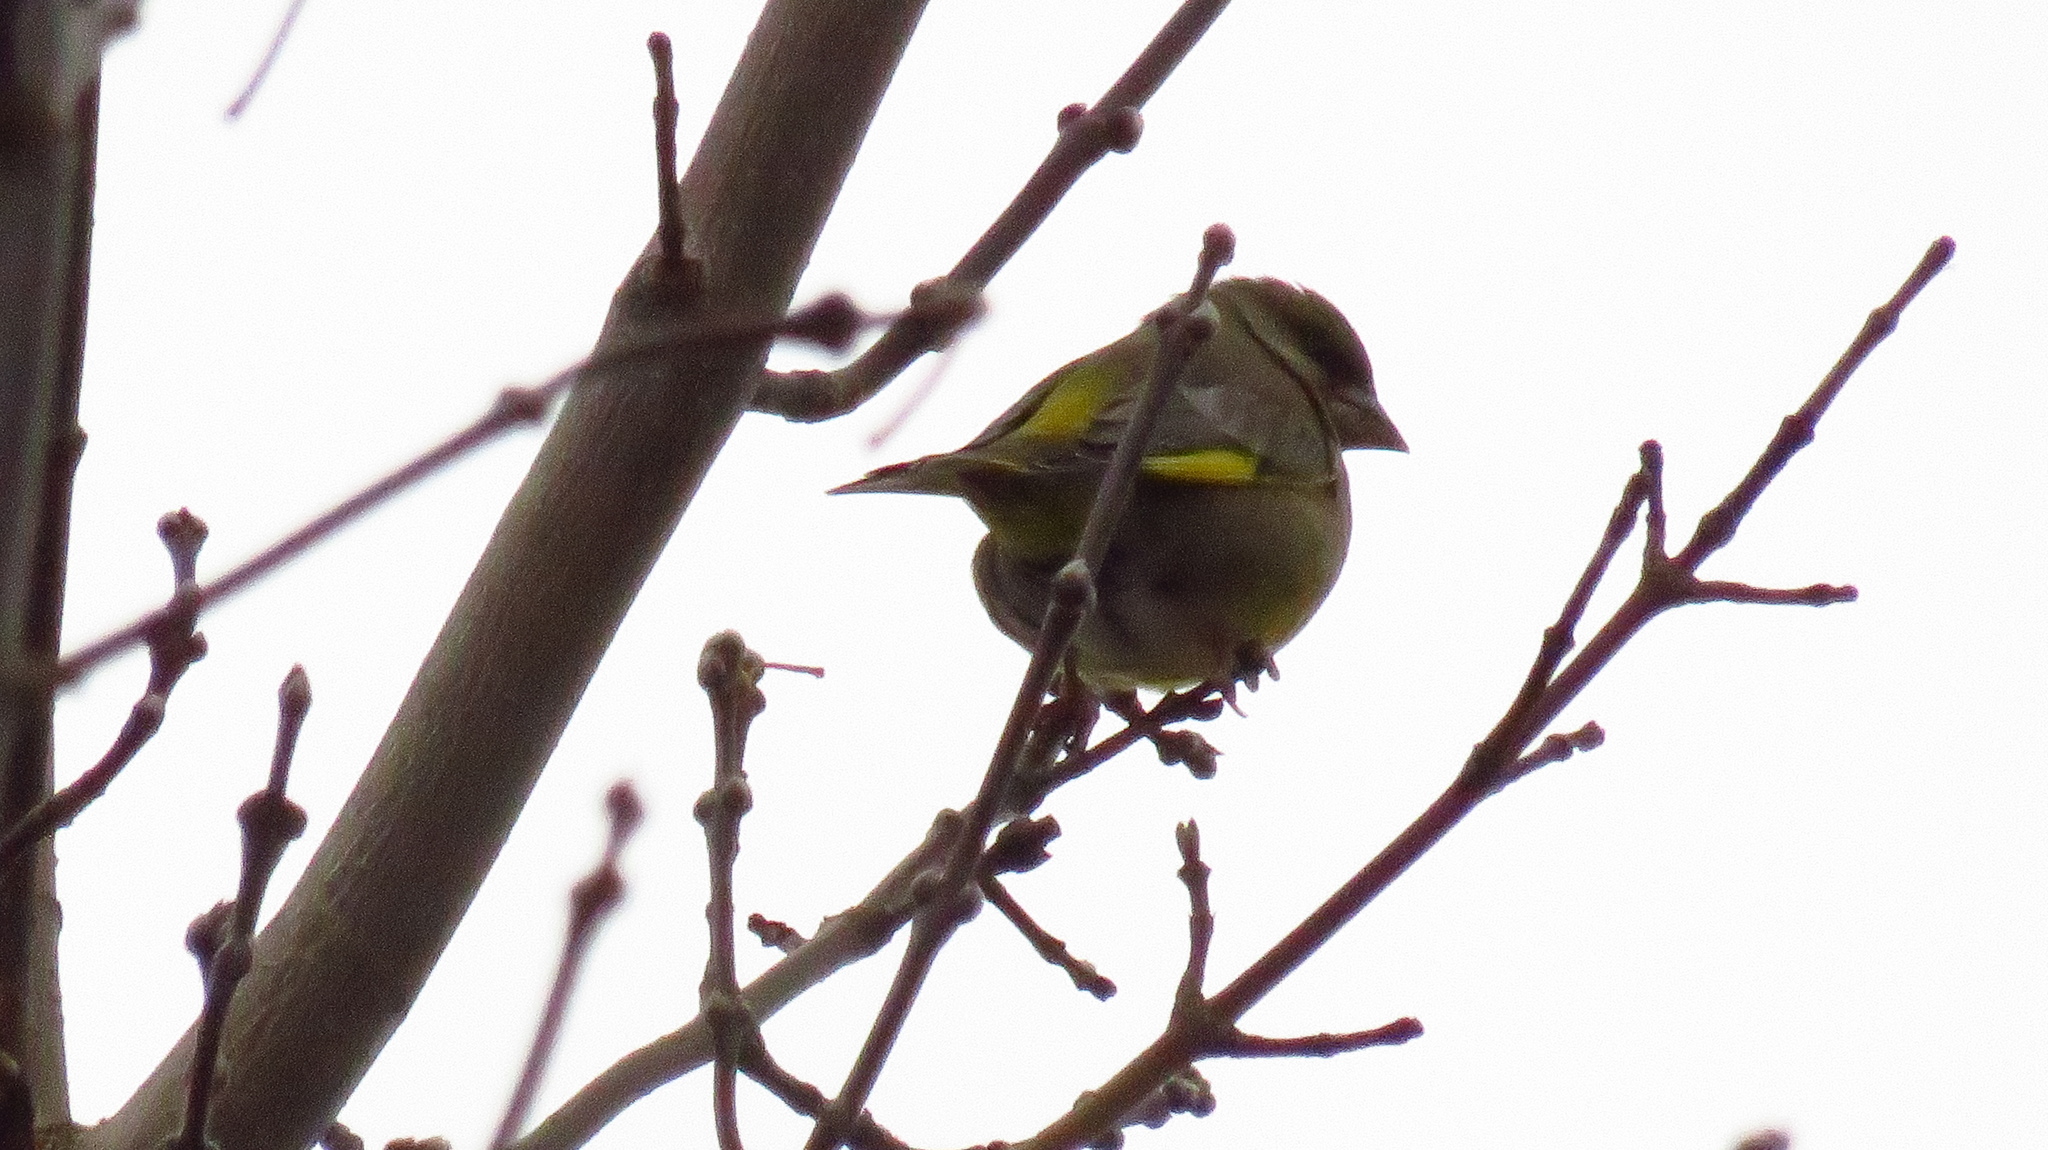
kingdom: Plantae
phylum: Tracheophyta
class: Liliopsida
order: Poales
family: Poaceae
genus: Chloris
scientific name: Chloris chloris
